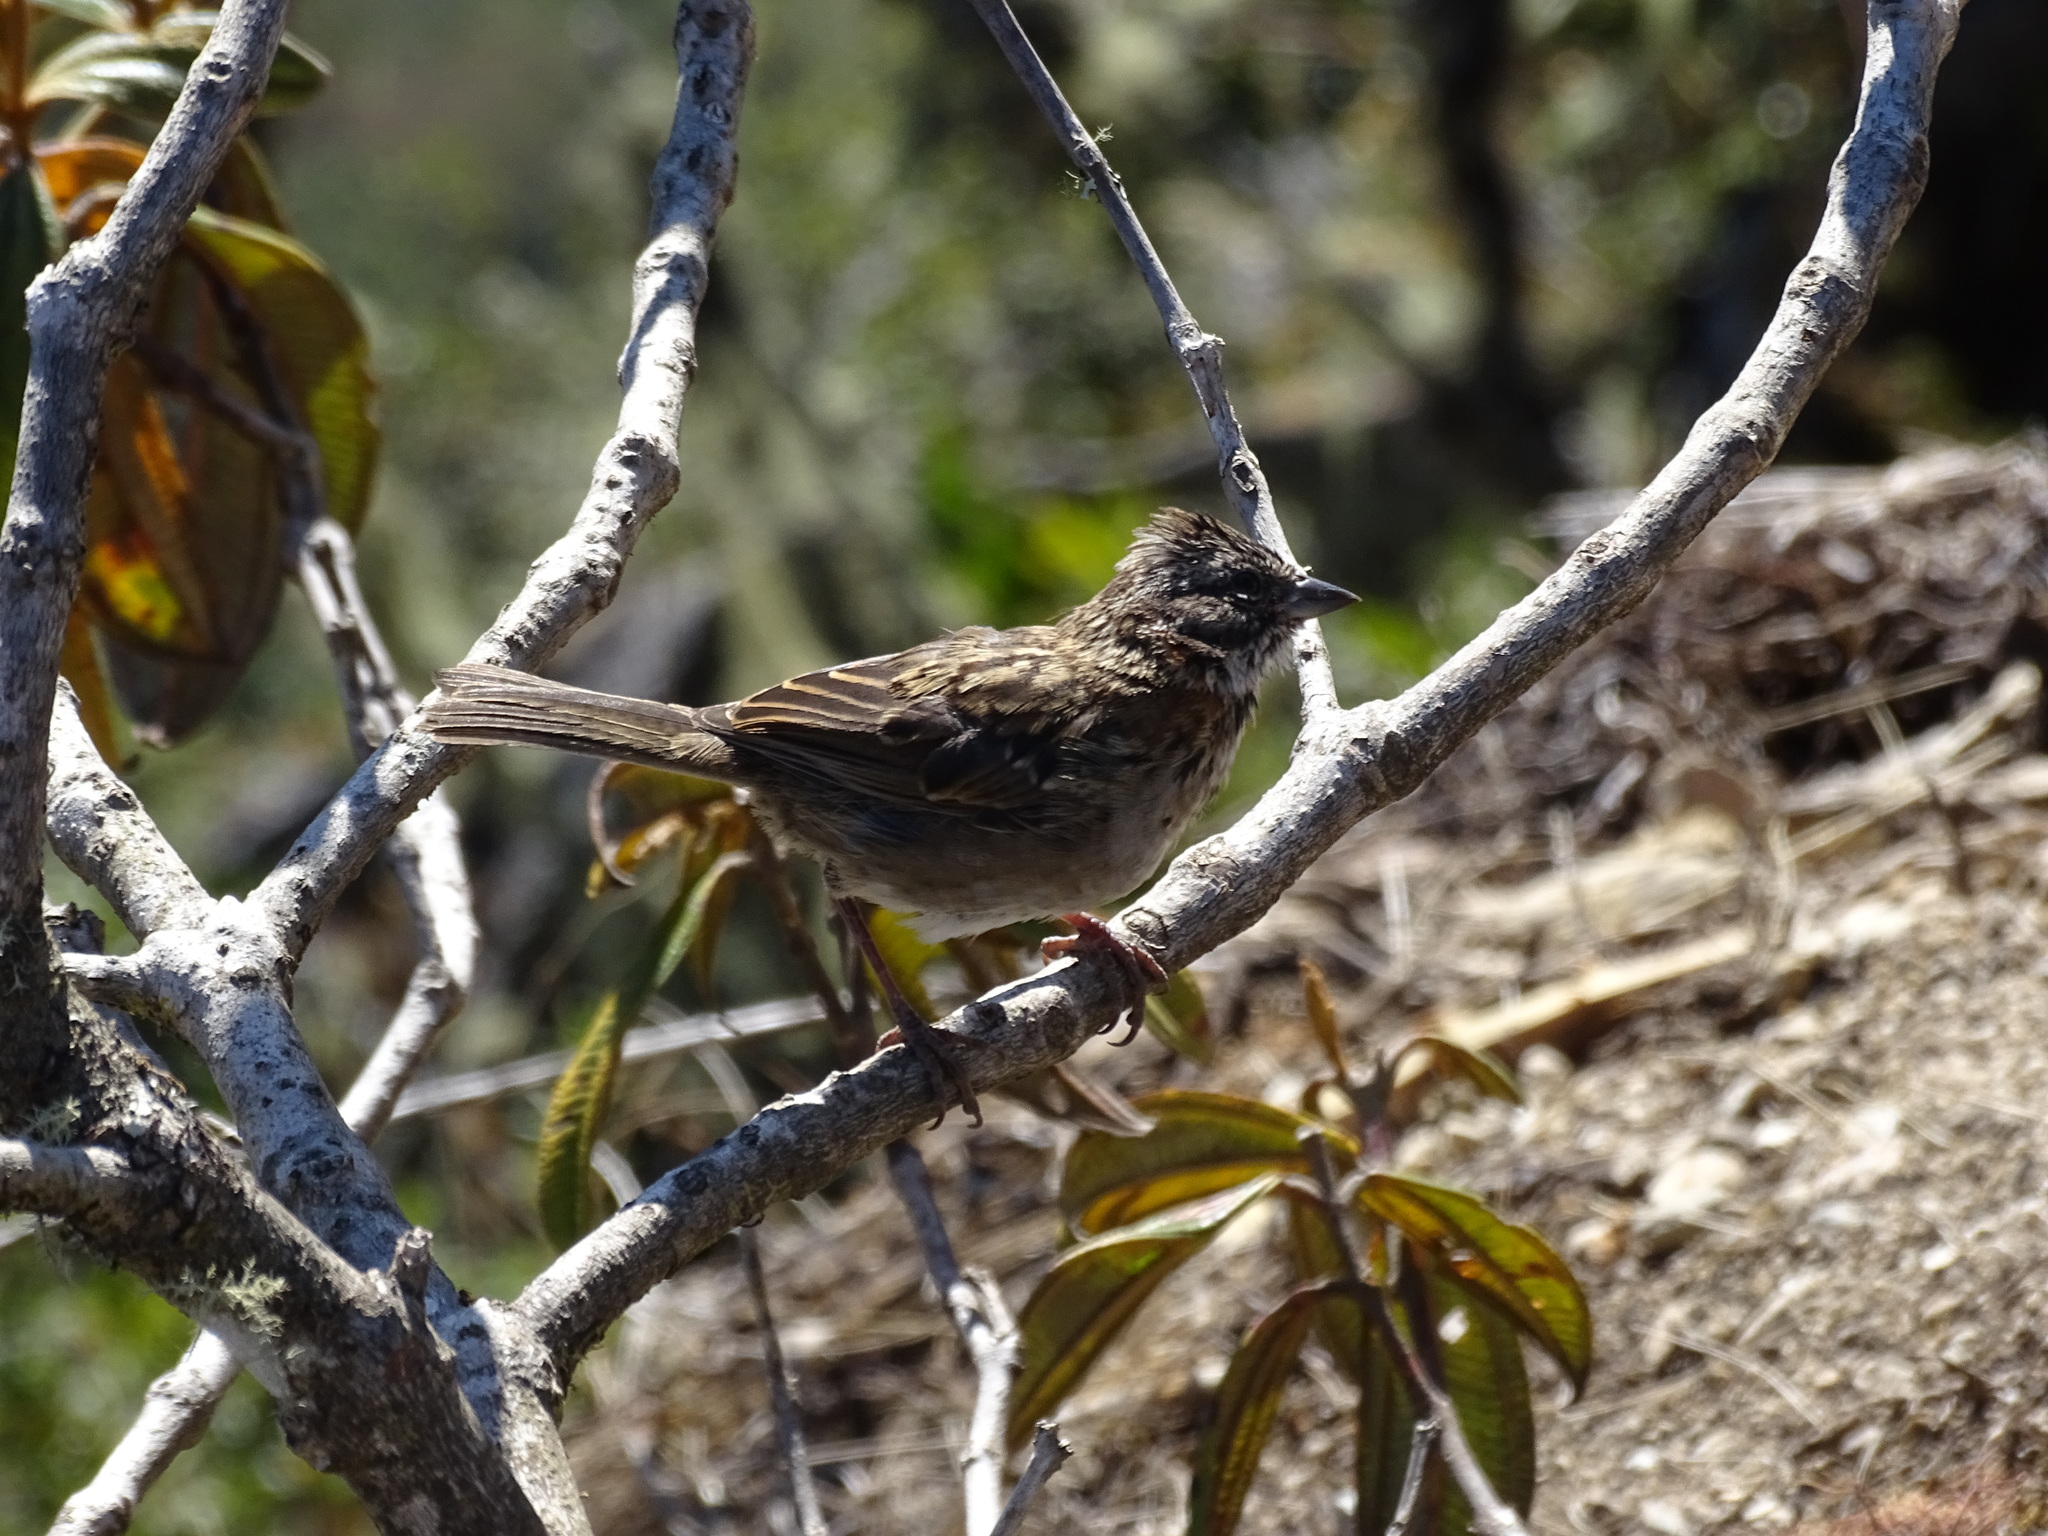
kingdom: Animalia
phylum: Chordata
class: Aves
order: Passeriformes
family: Passerellidae
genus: Zonotrichia
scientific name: Zonotrichia capensis
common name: Rufous-collared sparrow
